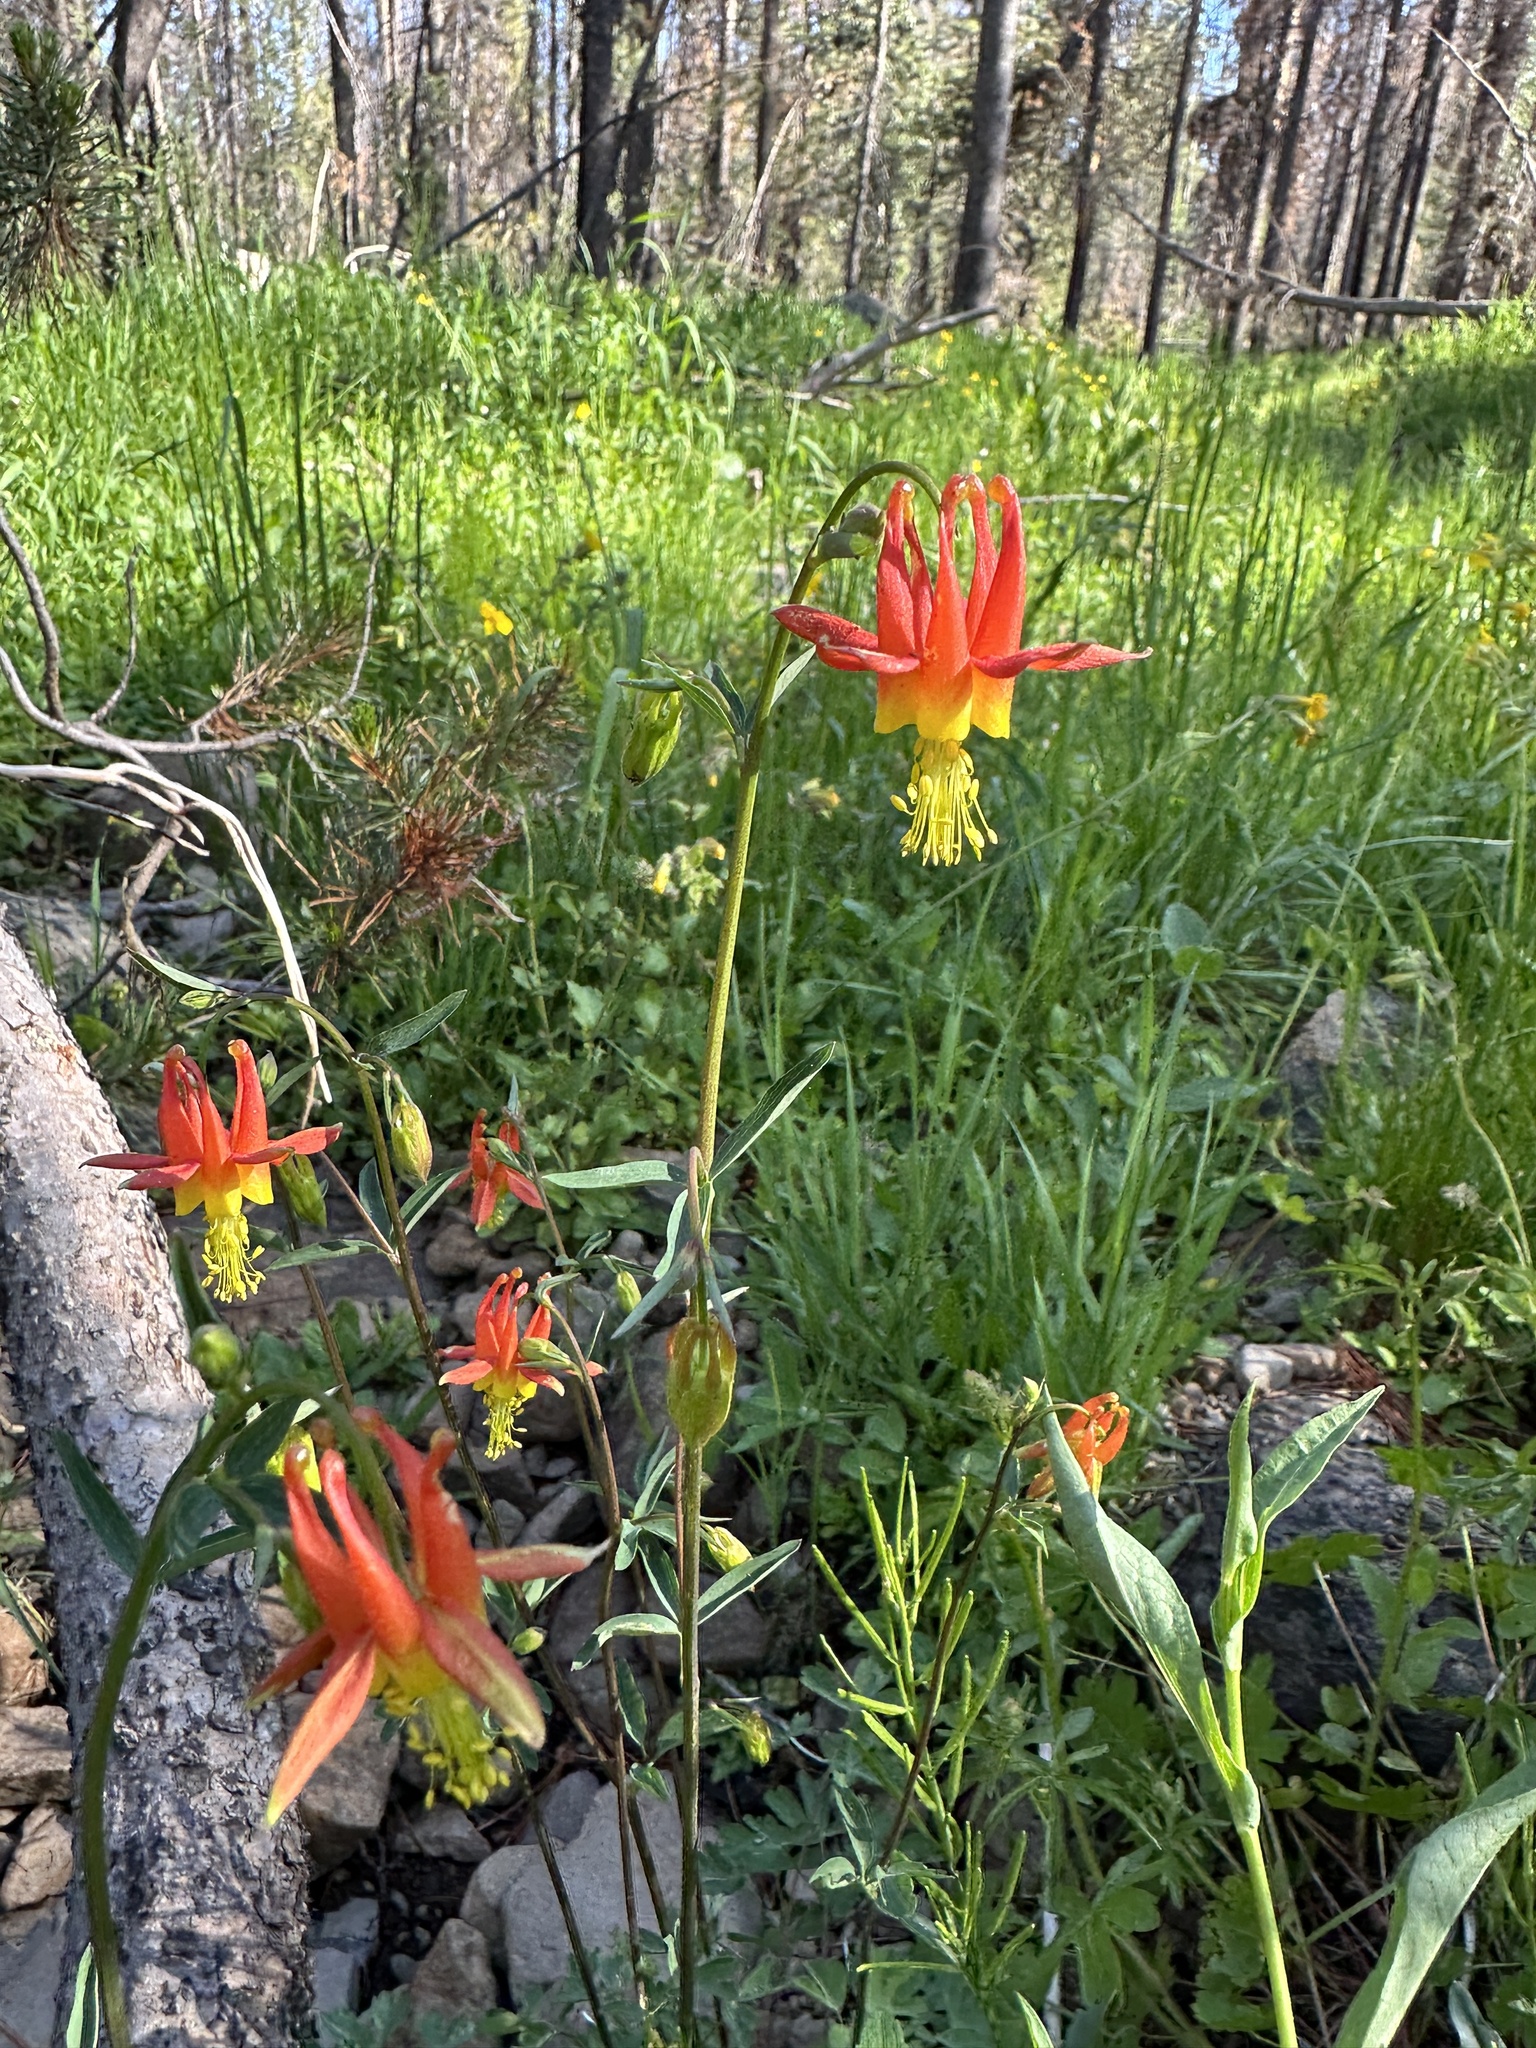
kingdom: Plantae
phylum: Tracheophyta
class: Magnoliopsida
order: Ranunculales
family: Ranunculaceae
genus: Aquilegia
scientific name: Aquilegia formosa
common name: Sitka columbine
